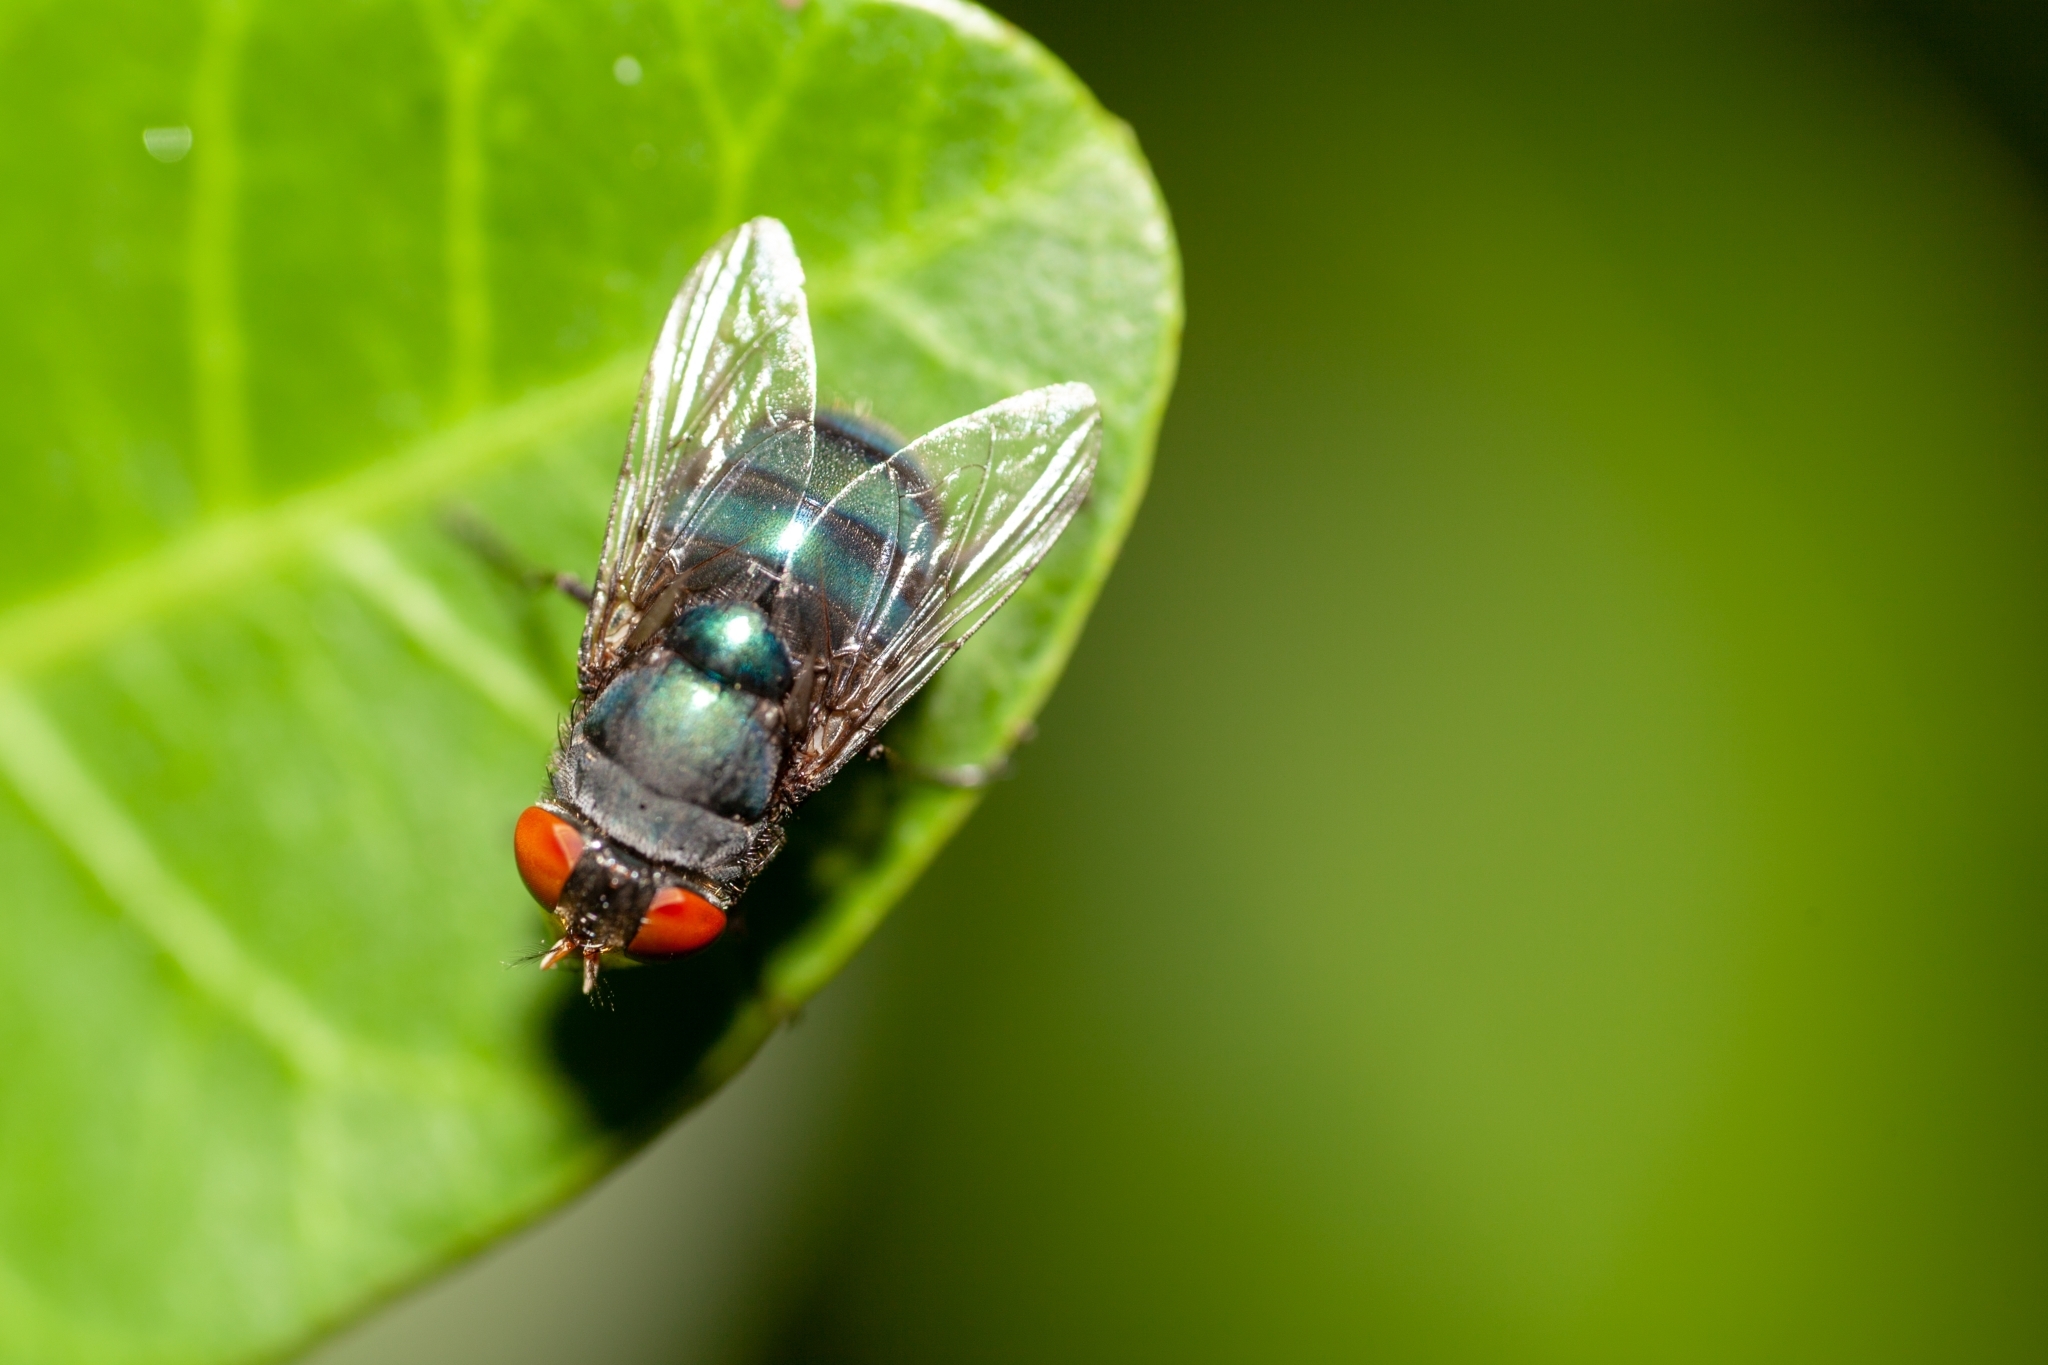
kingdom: Animalia
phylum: Arthropoda
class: Insecta
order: Diptera
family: Calliphoridae
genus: Chrysomya
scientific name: Chrysomya megacephala
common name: Blow fly
